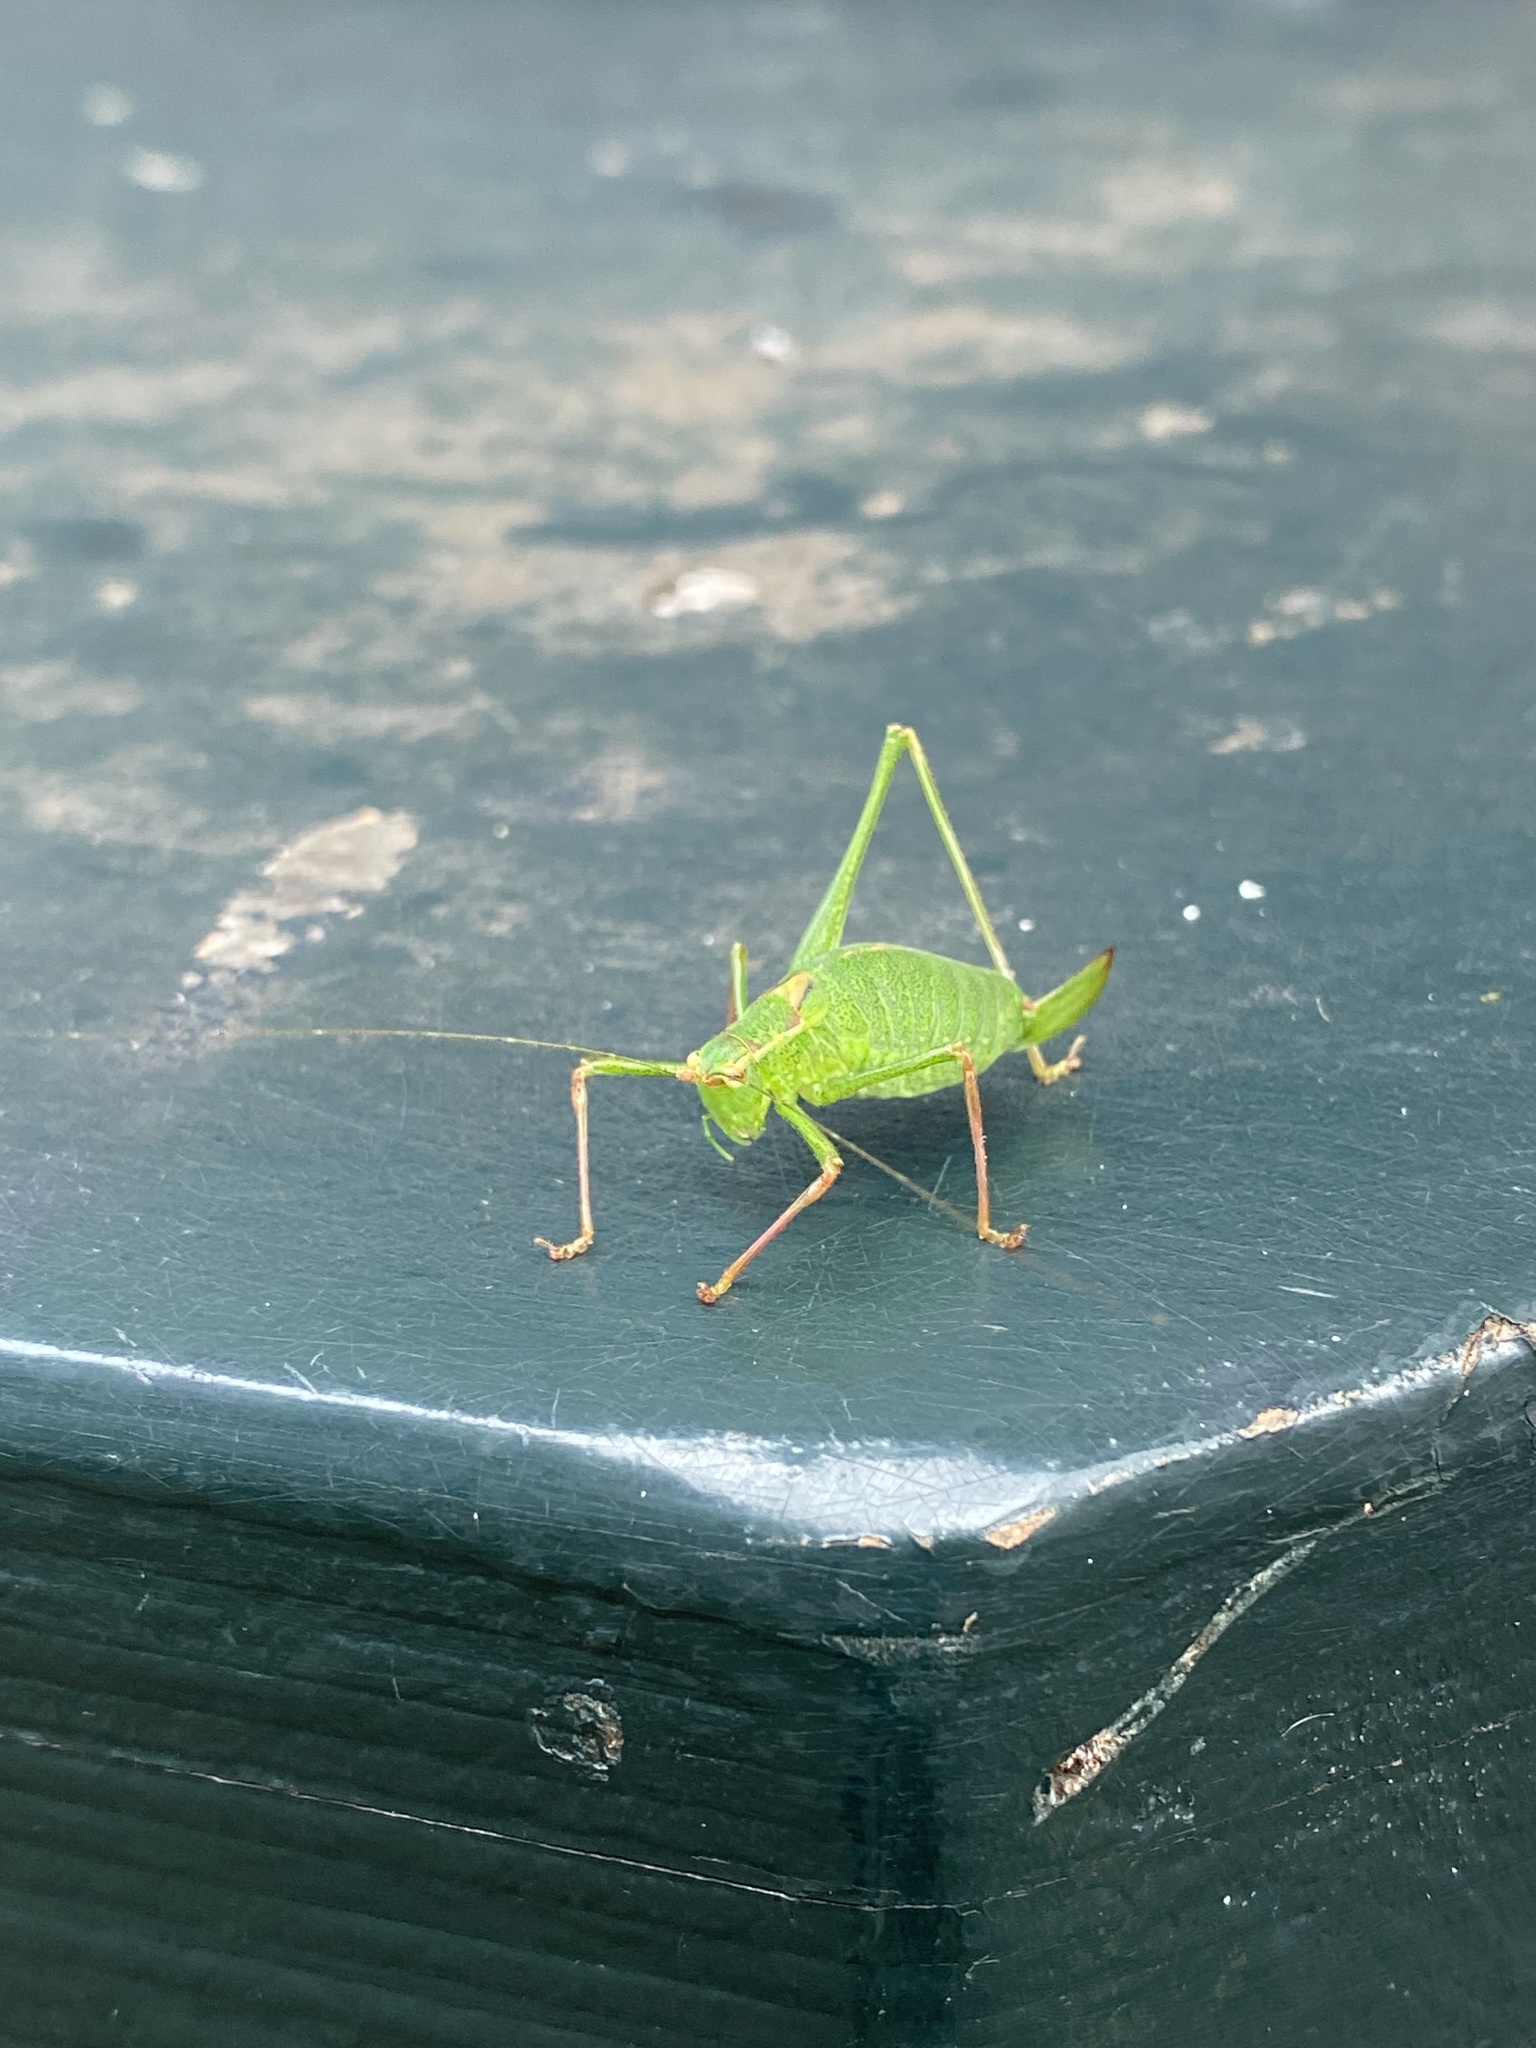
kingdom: Animalia
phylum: Arthropoda
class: Insecta
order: Orthoptera
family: Tettigoniidae
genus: Leptophyes
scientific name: Leptophyes punctatissima
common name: Speckled bush-cricket
